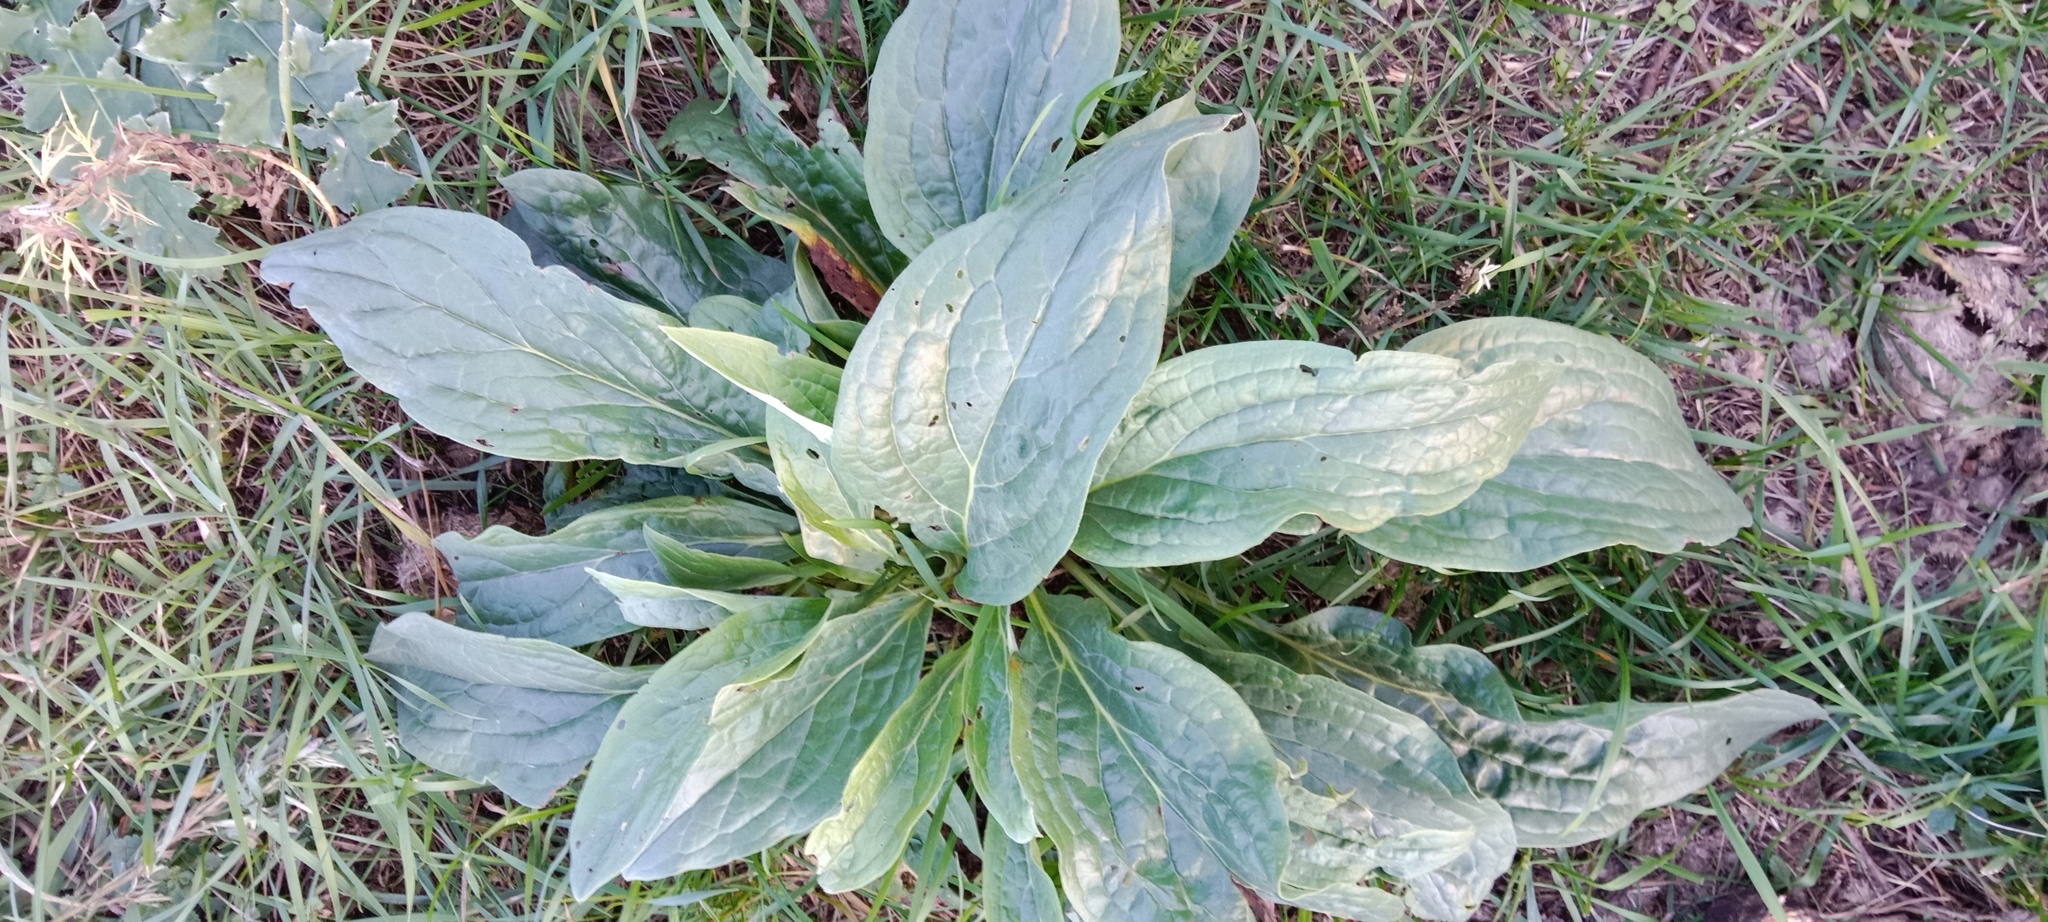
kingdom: Plantae
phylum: Tracheophyta
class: Magnoliopsida
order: Boraginales
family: Boraginaceae
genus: Cynoglossum
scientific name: Cynoglossum officinale
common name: Hound's-tongue
